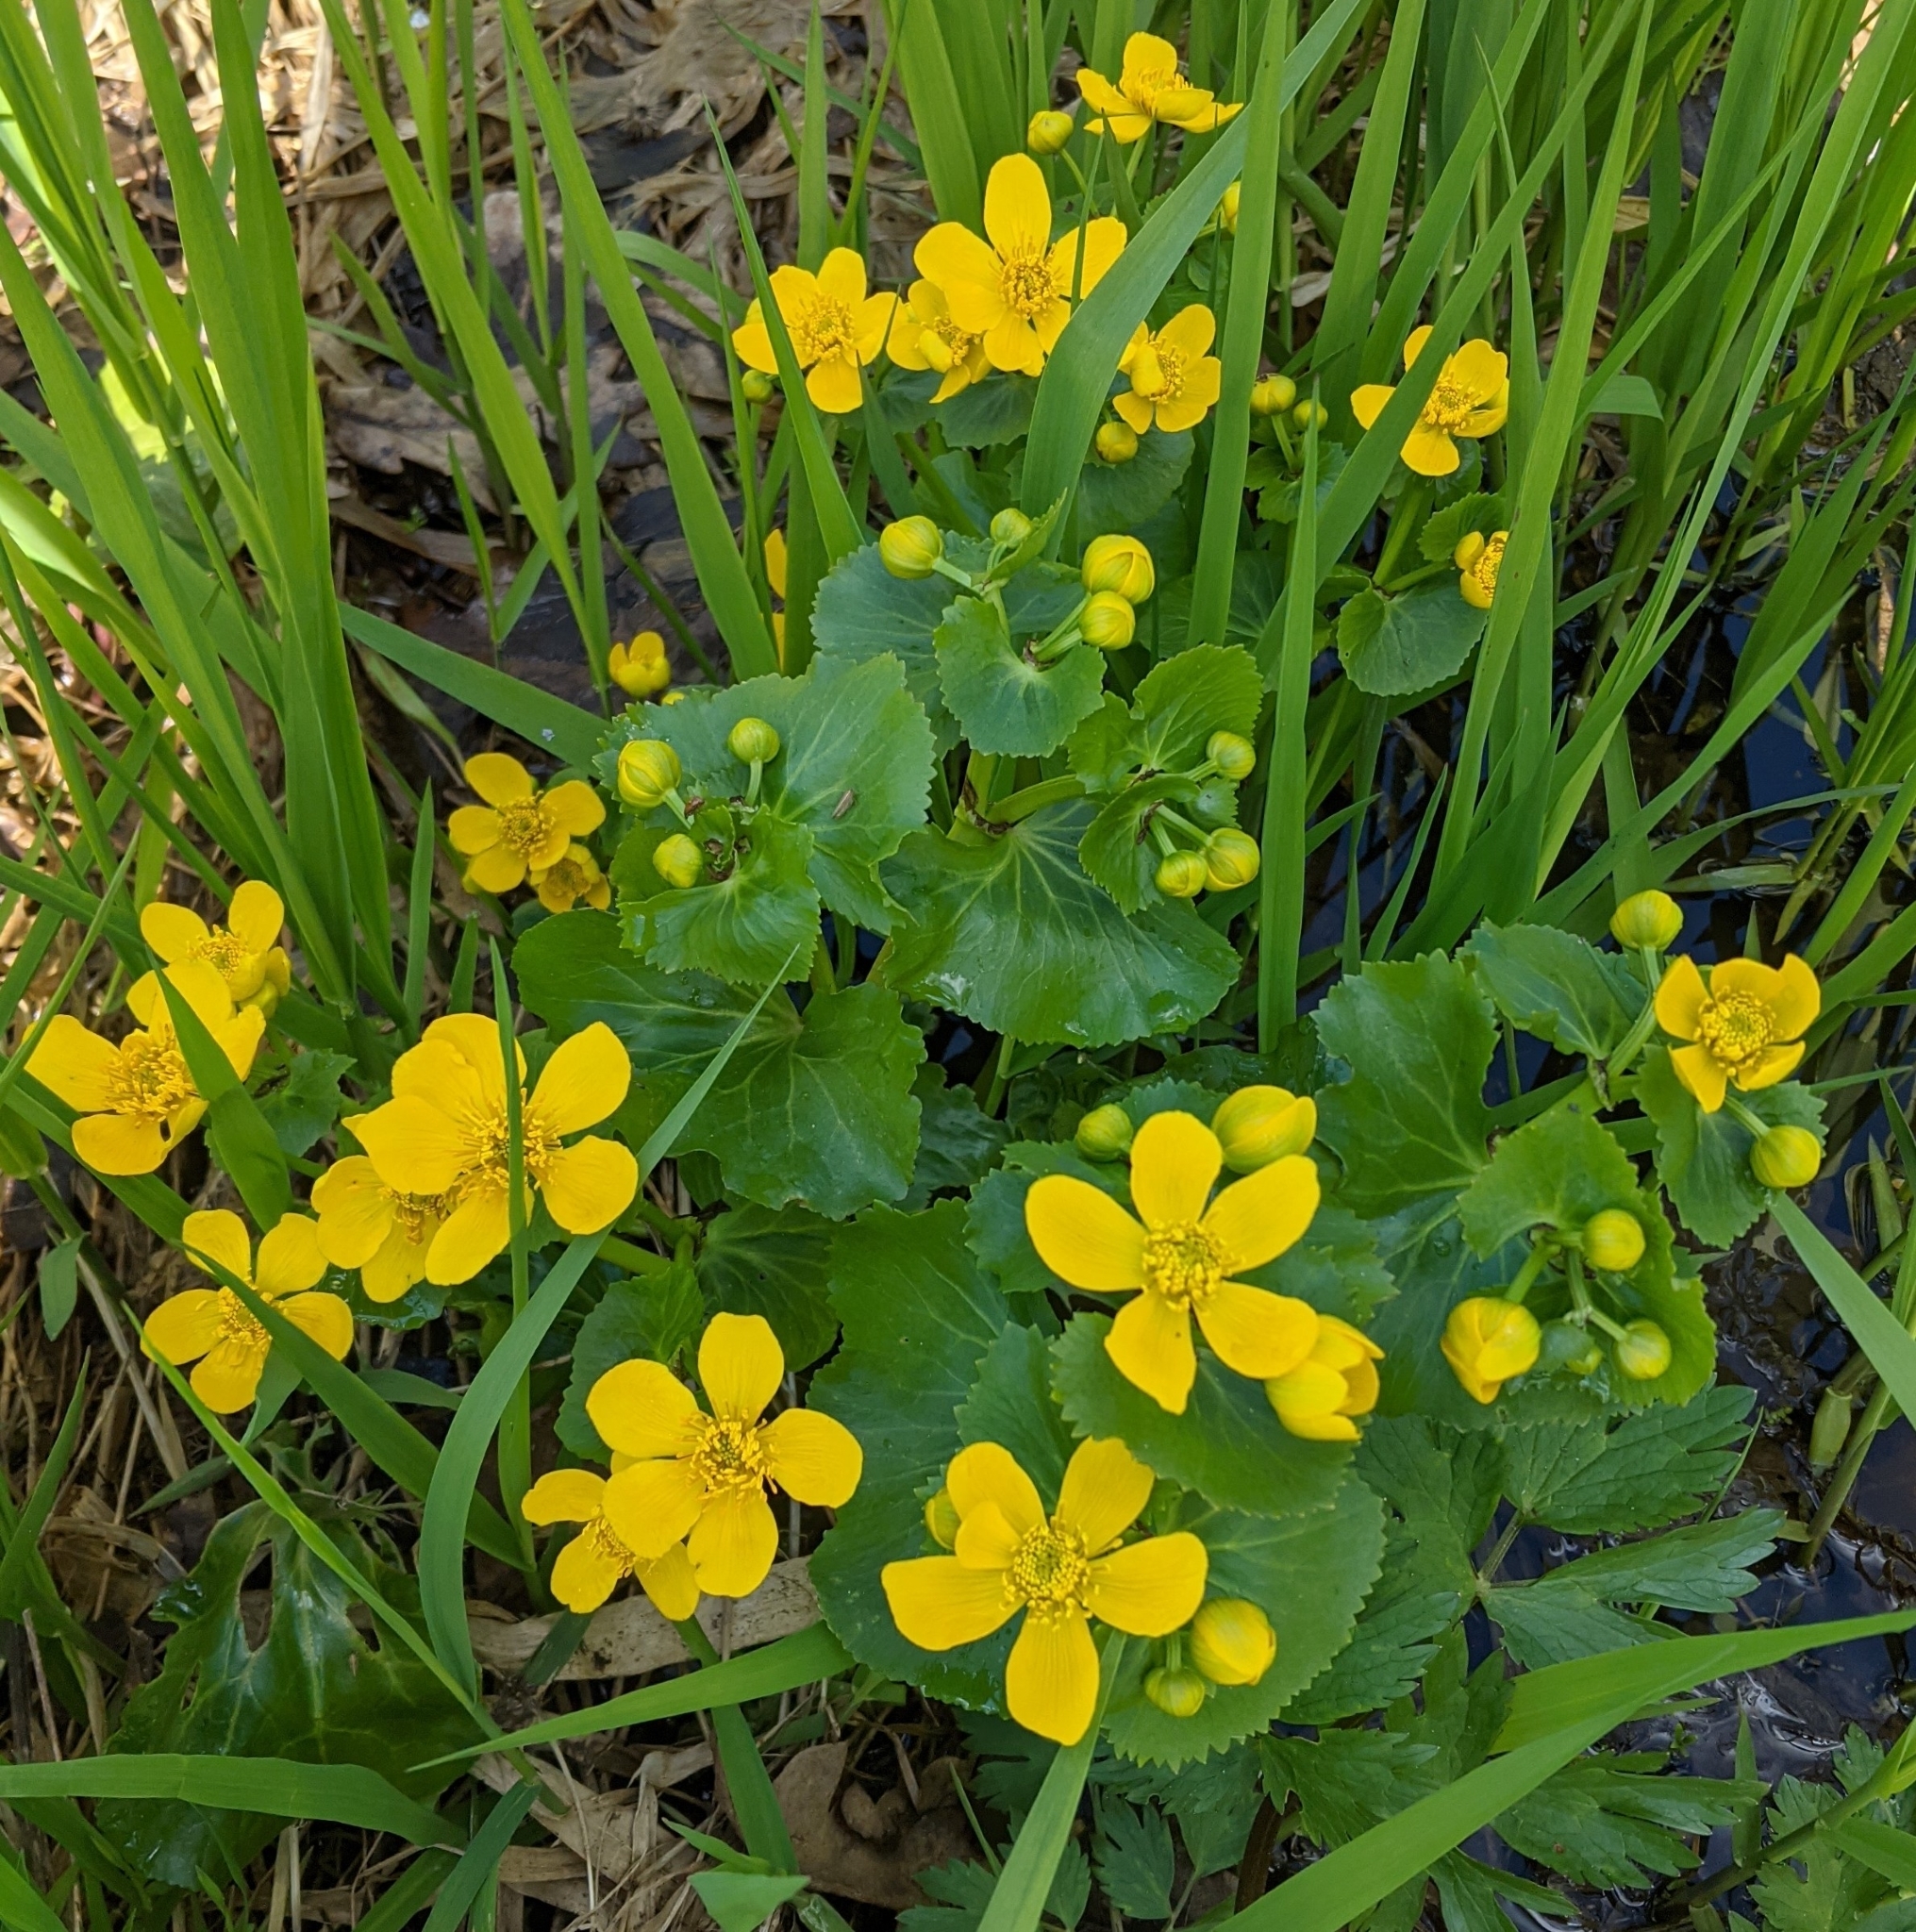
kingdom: Plantae
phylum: Tracheophyta
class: Magnoliopsida
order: Ranunculales
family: Ranunculaceae
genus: Caltha
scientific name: Caltha palustris
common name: Marsh marigold
